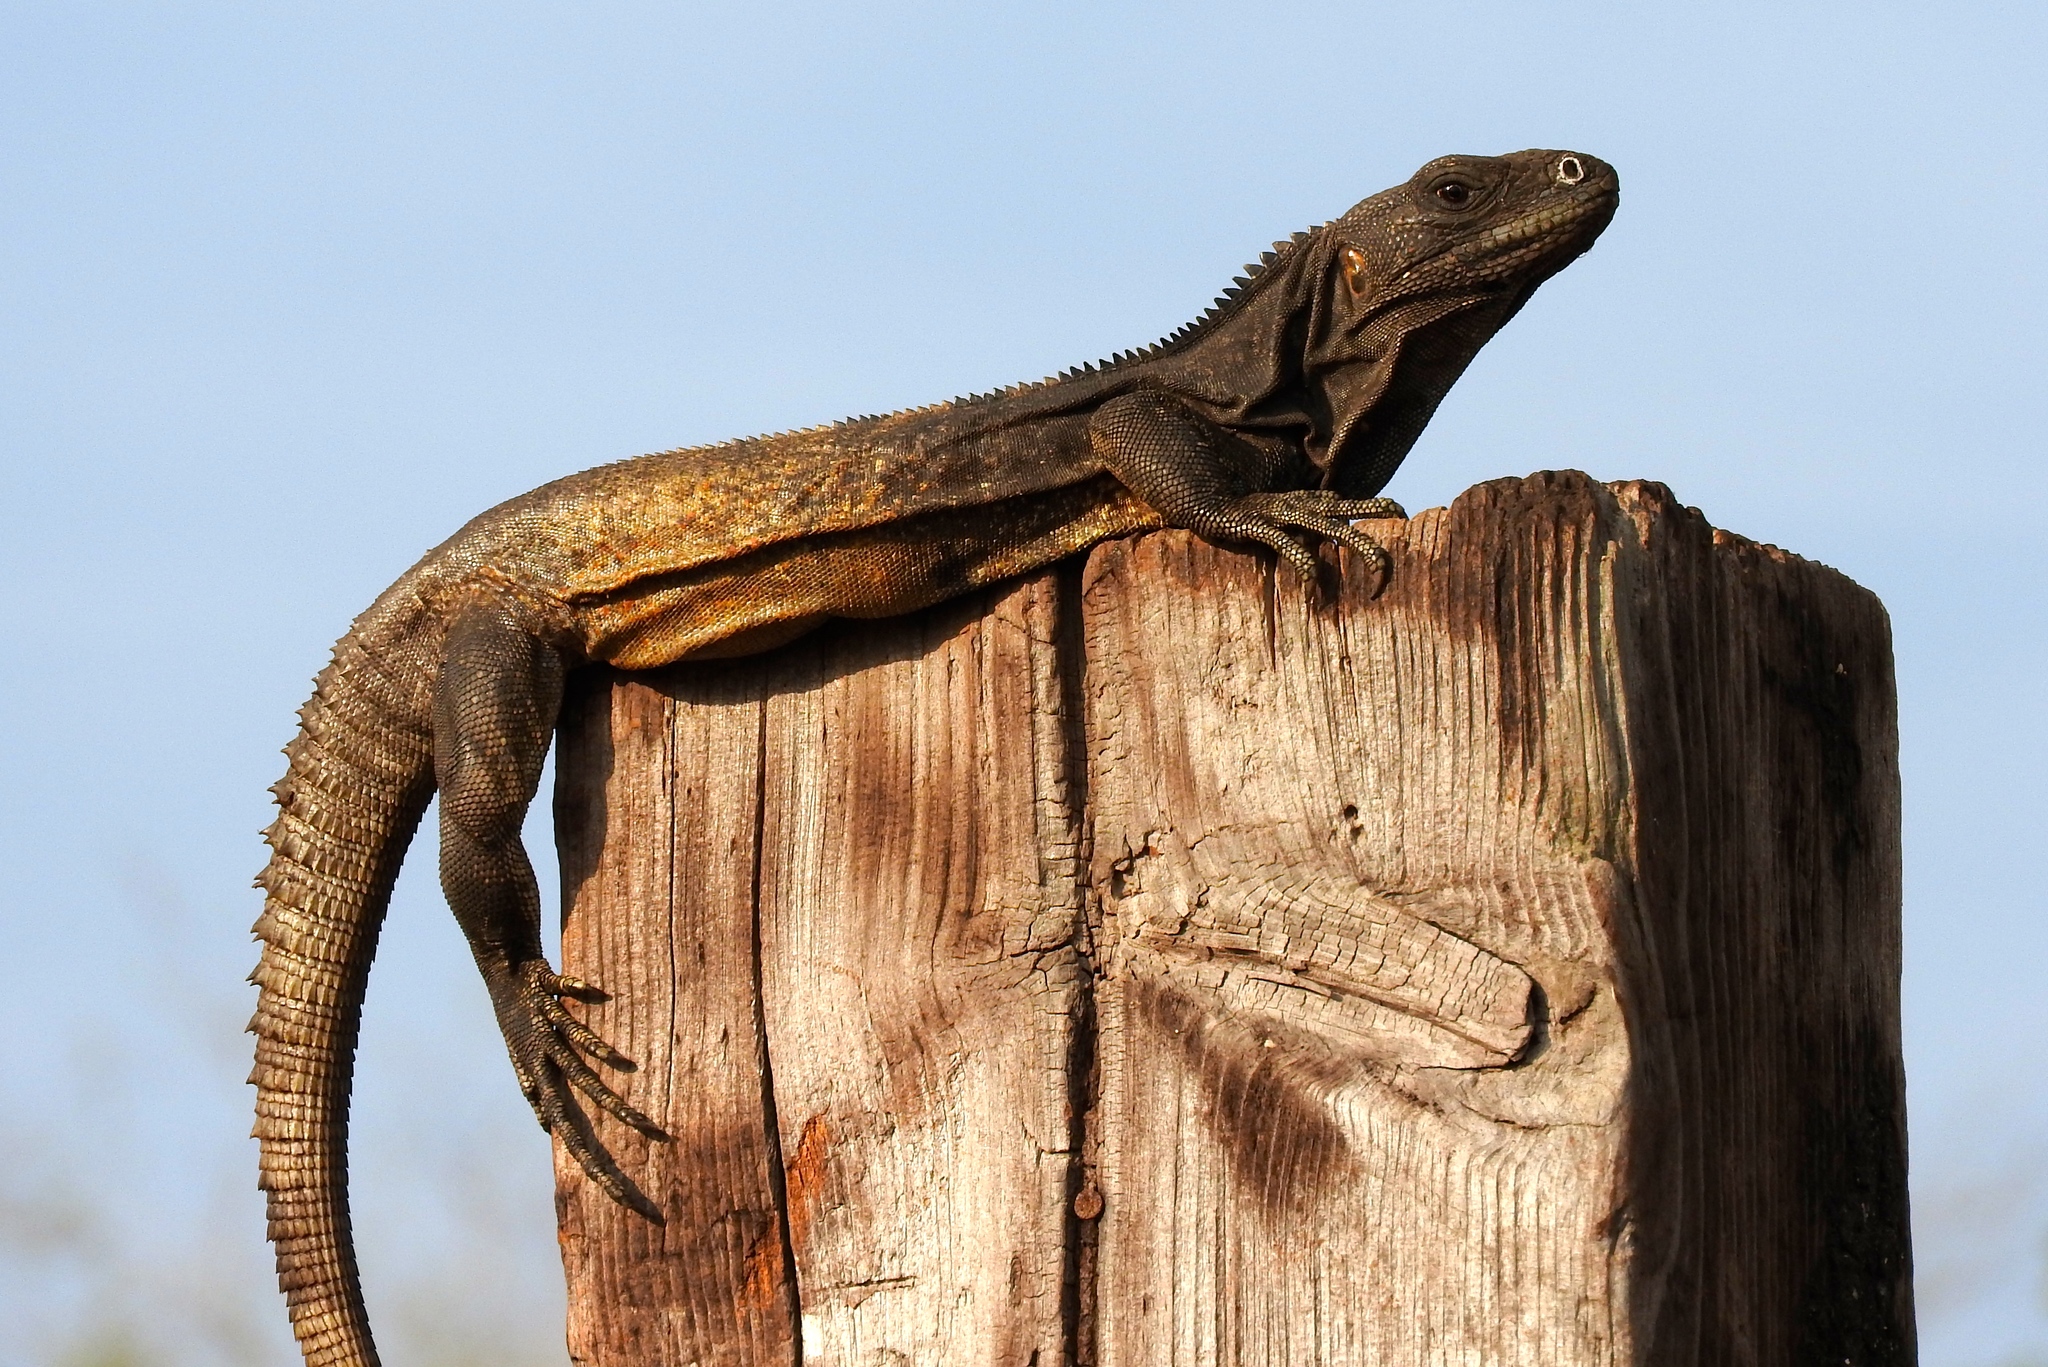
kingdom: Animalia
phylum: Chordata
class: Squamata
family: Iguanidae
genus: Ctenosaura
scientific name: Ctenosaura pectinata
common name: Guerreran spiny-tailed iguana
